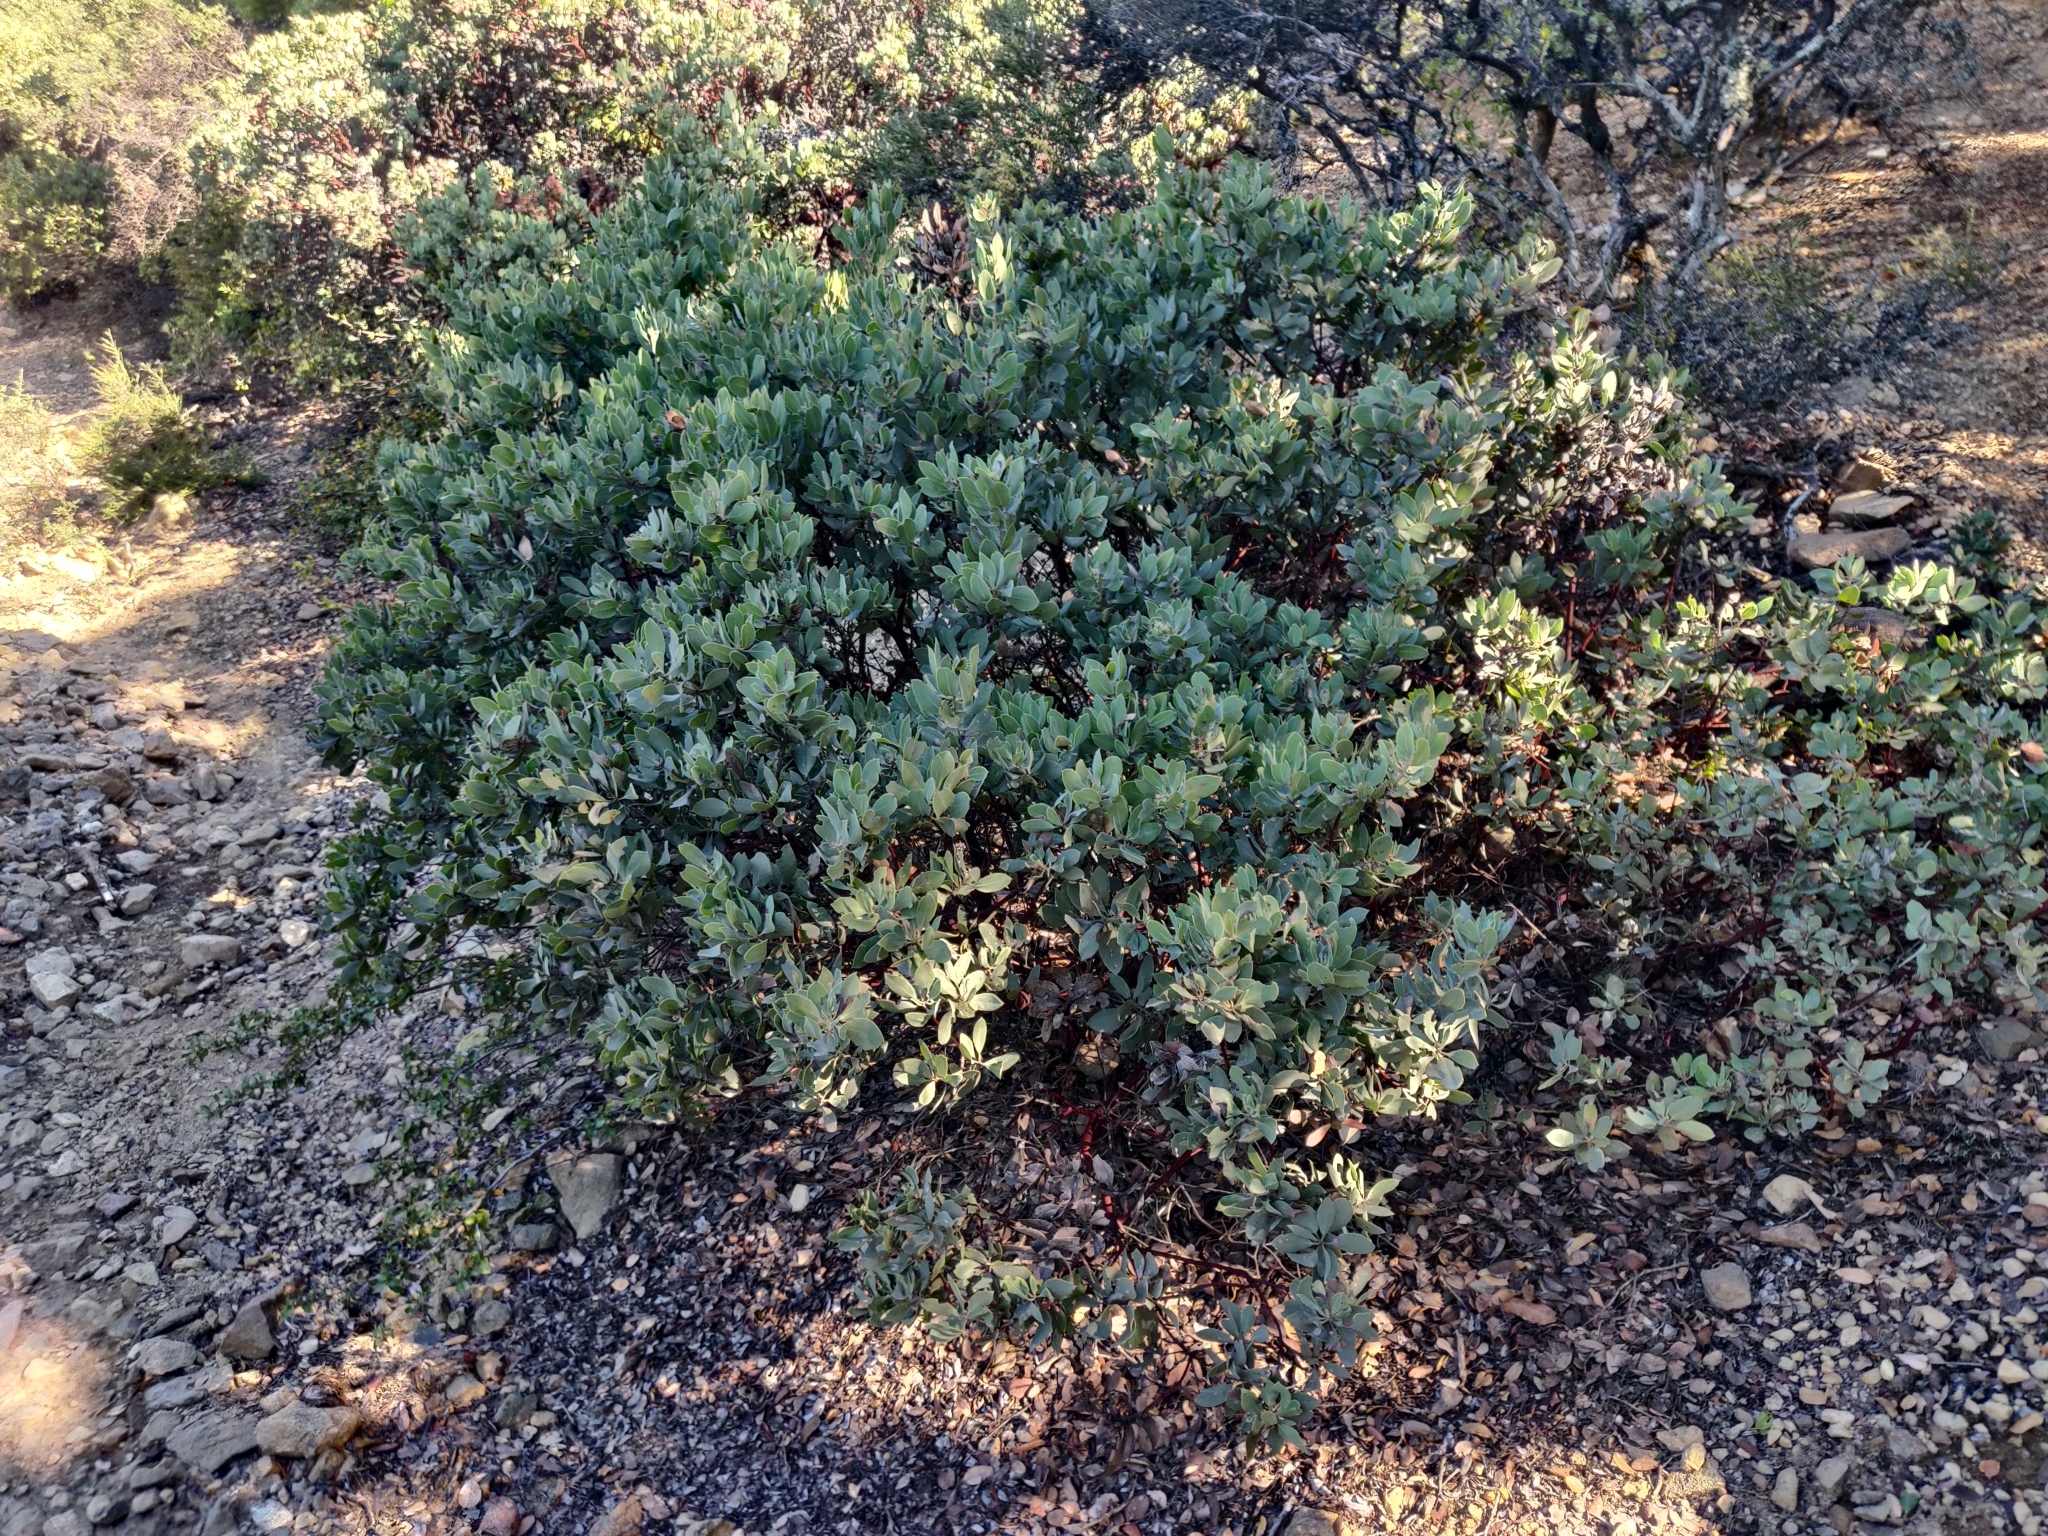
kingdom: Plantae
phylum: Tracheophyta
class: Magnoliopsida
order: Ericales
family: Ericaceae
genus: Arctostaphylos
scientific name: Arctostaphylos glandulosa
